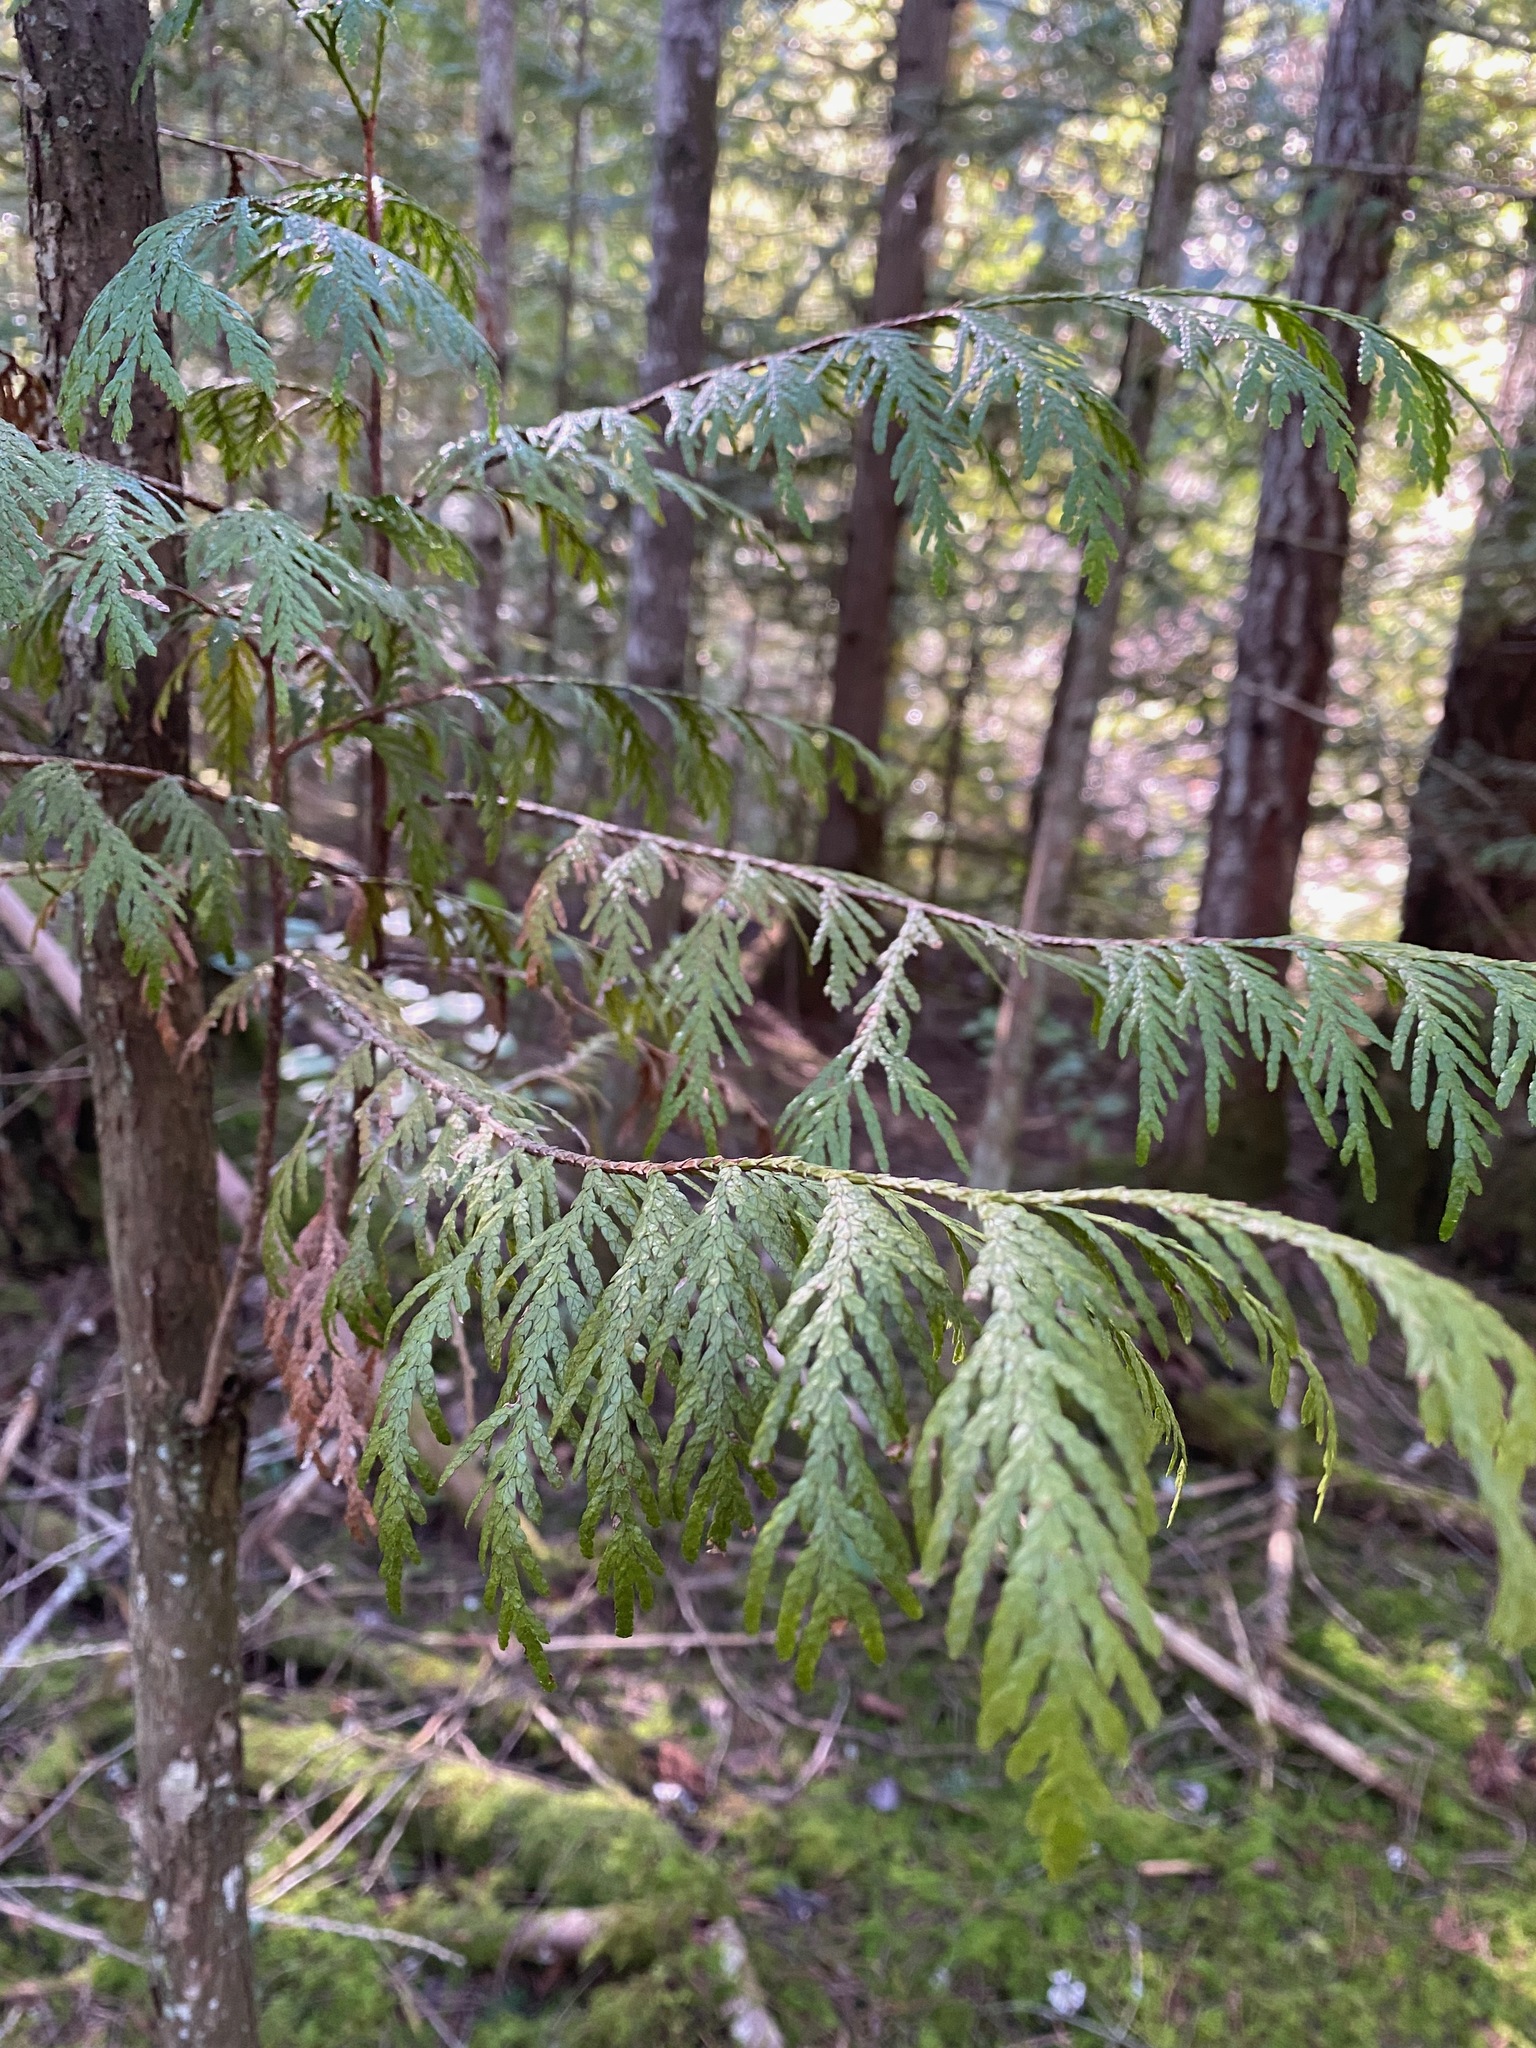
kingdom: Plantae
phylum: Tracheophyta
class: Pinopsida
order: Pinales
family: Cupressaceae
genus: Thuja
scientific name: Thuja plicata
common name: Western red-cedar
